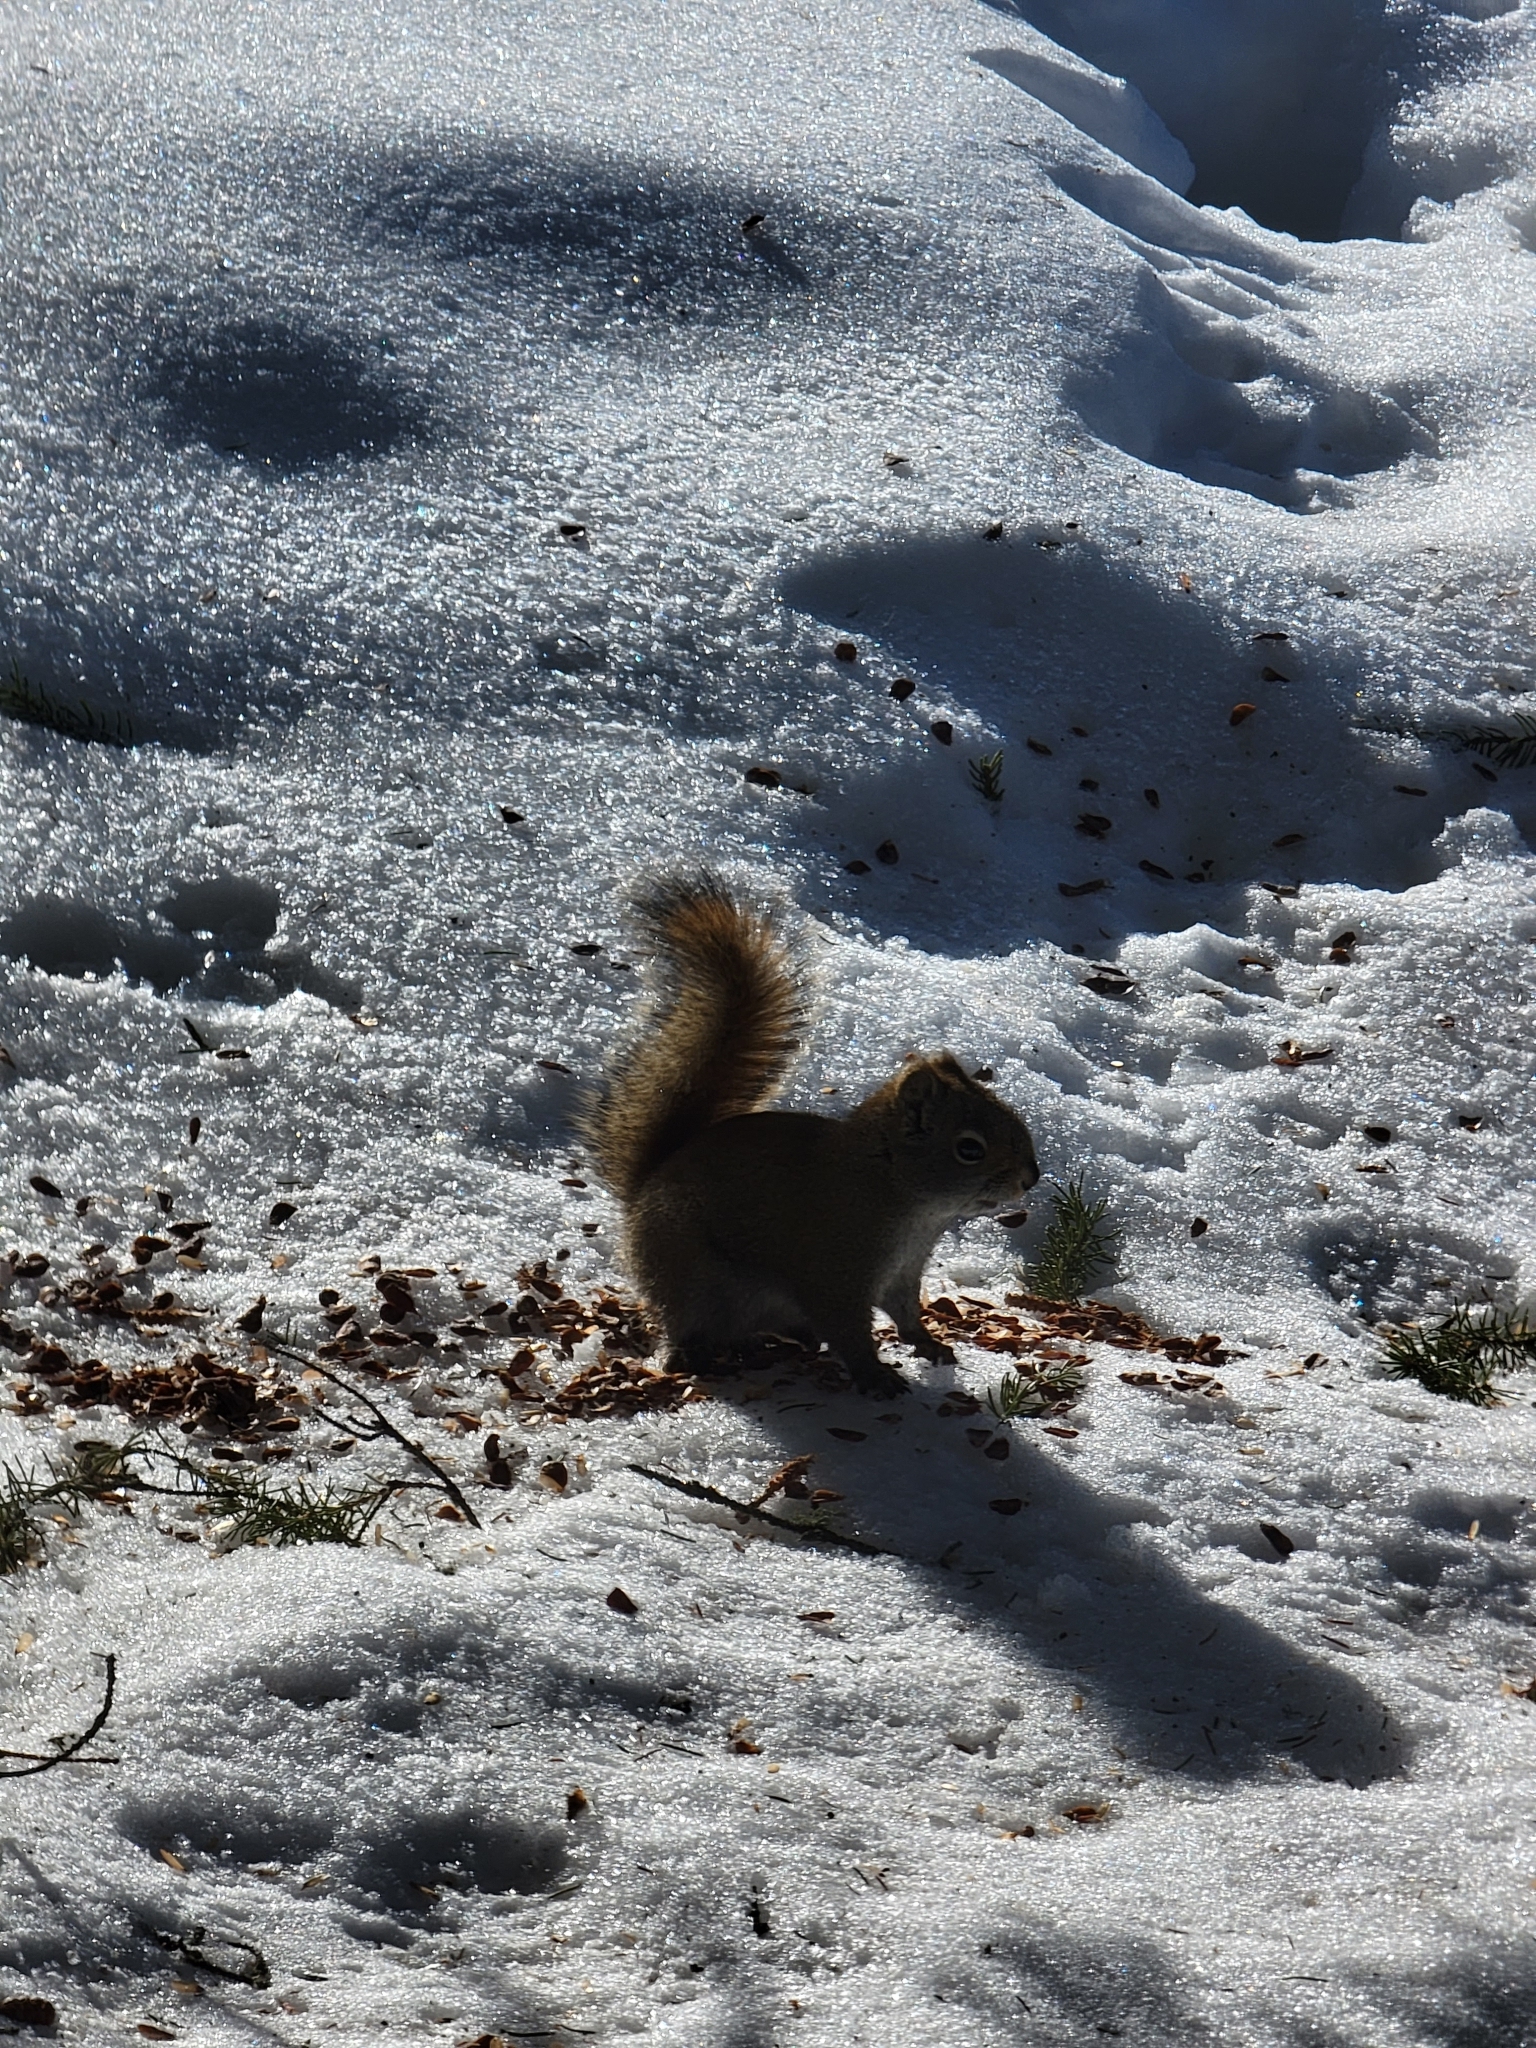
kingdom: Animalia
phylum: Chordata
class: Mammalia
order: Rodentia
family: Sciuridae
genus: Tamiasciurus
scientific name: Tamiasciurus hudsonicus
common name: Red squirrel
